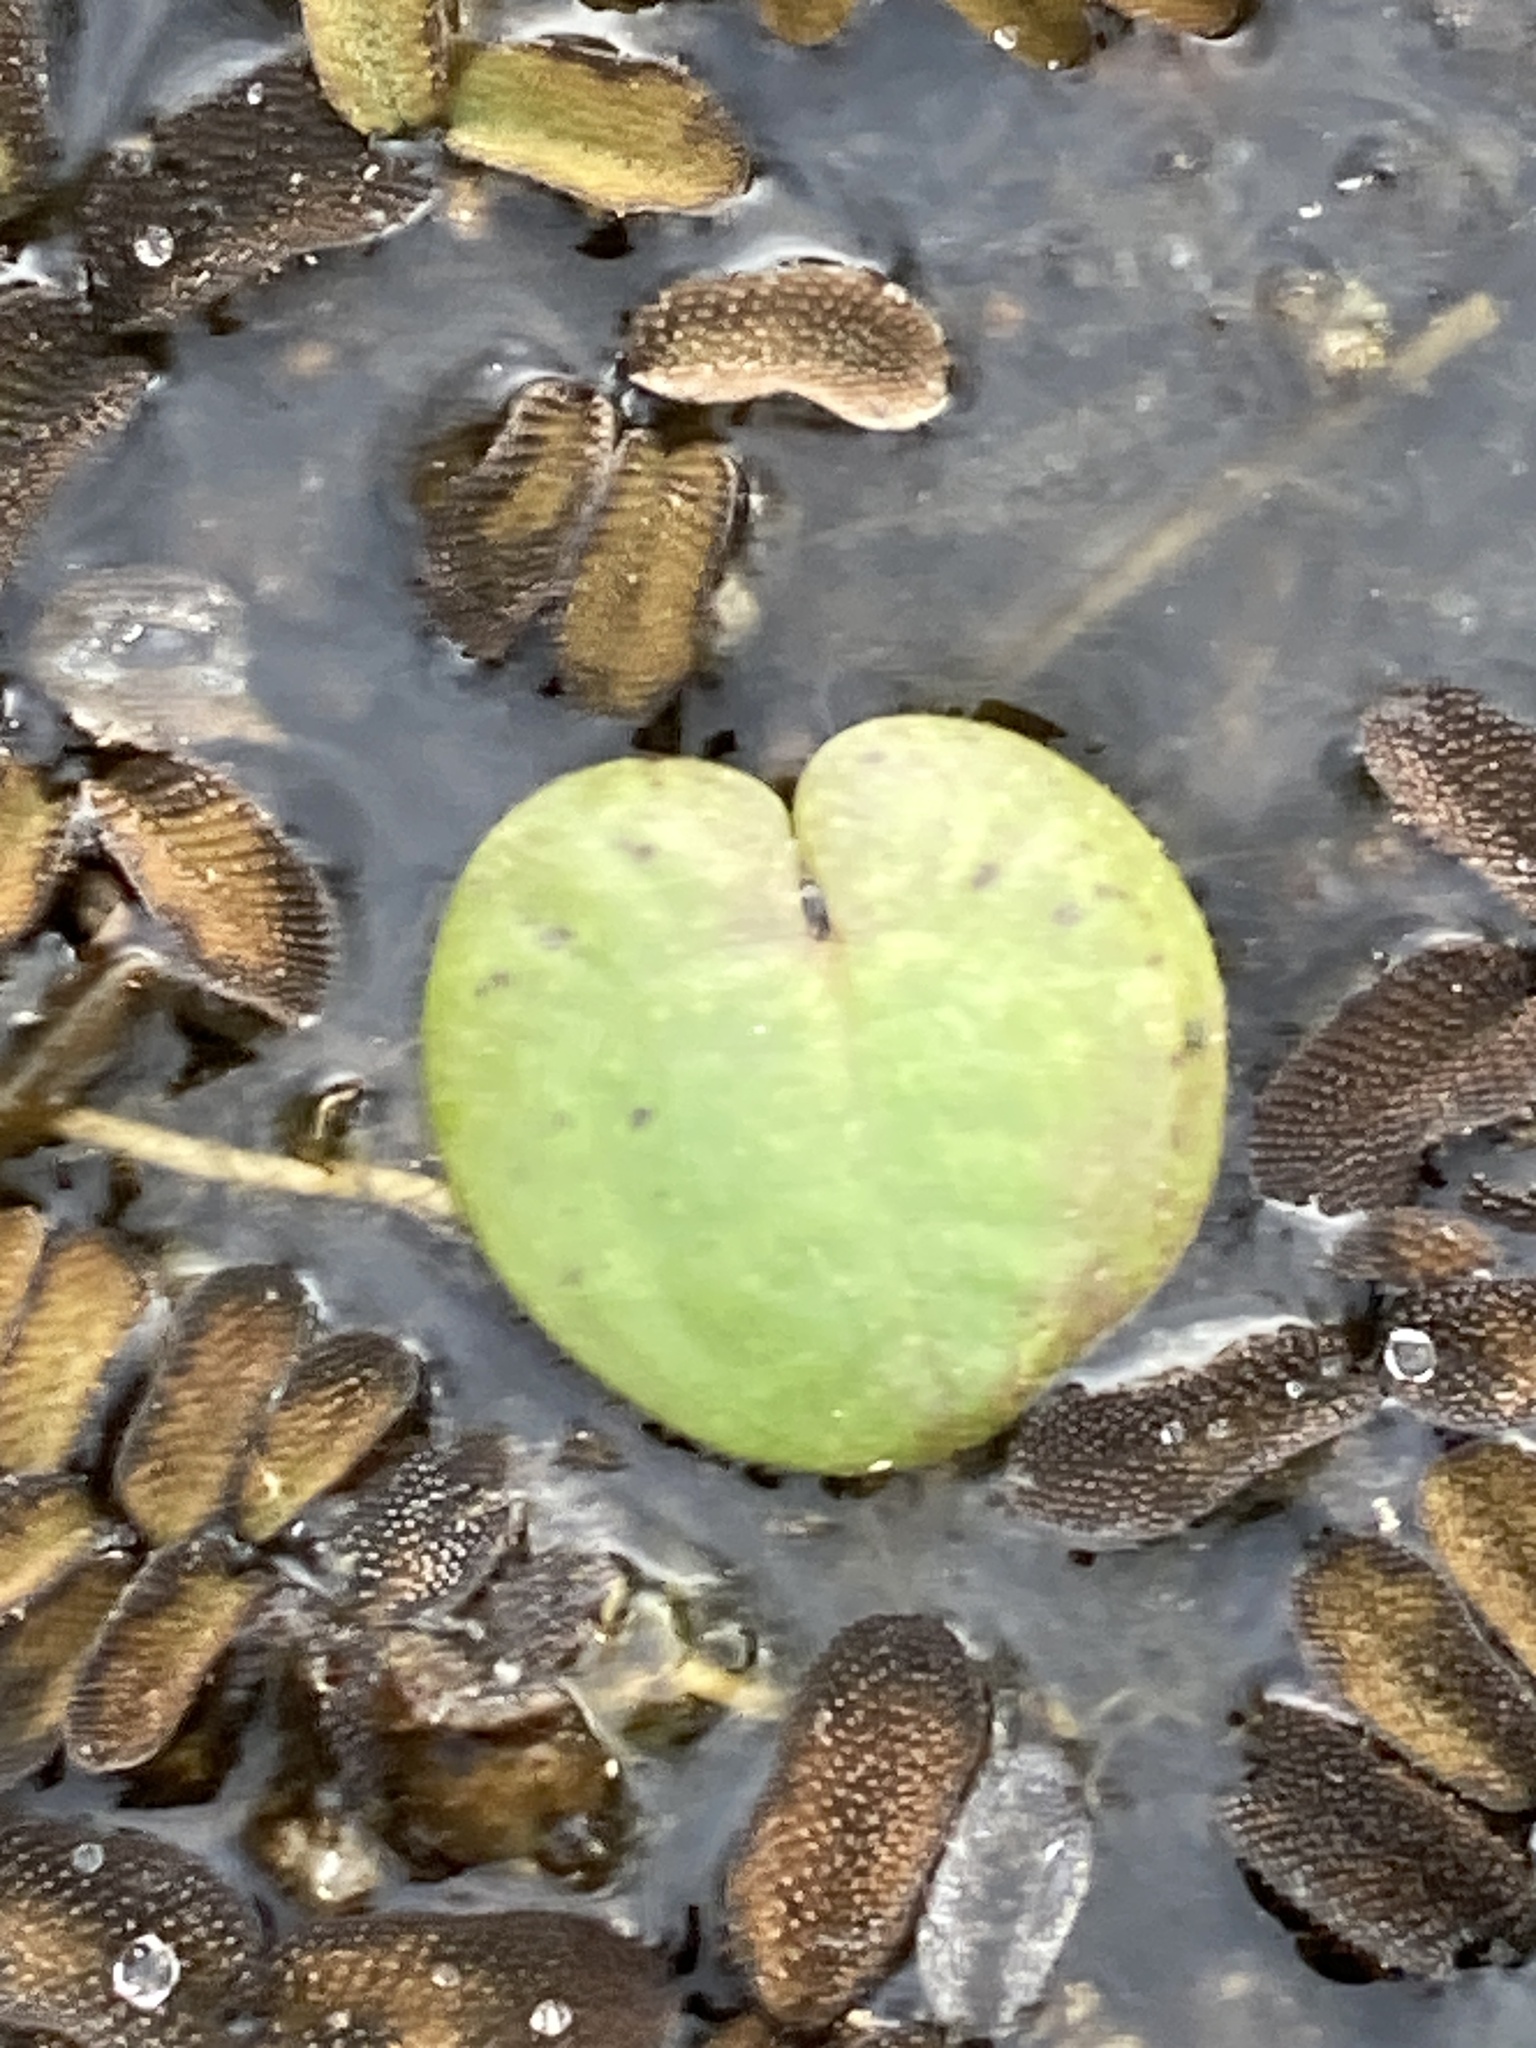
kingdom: Plantae
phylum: Tracheophyta
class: Liliopsida
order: Alismatales
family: Hydrocharitaceae
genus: Hydrocharis
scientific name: Hydrocharis morsus-ranae
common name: Frogbit
